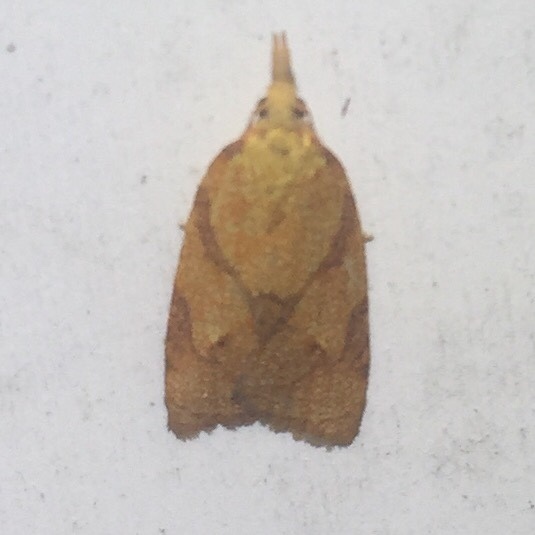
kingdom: Animalia
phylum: Arthropoda
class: Insecta
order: Lepidoptera
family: Tortricidae
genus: Cenopis
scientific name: Cenopis reticulatana
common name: Reticulated fruitworm moth
